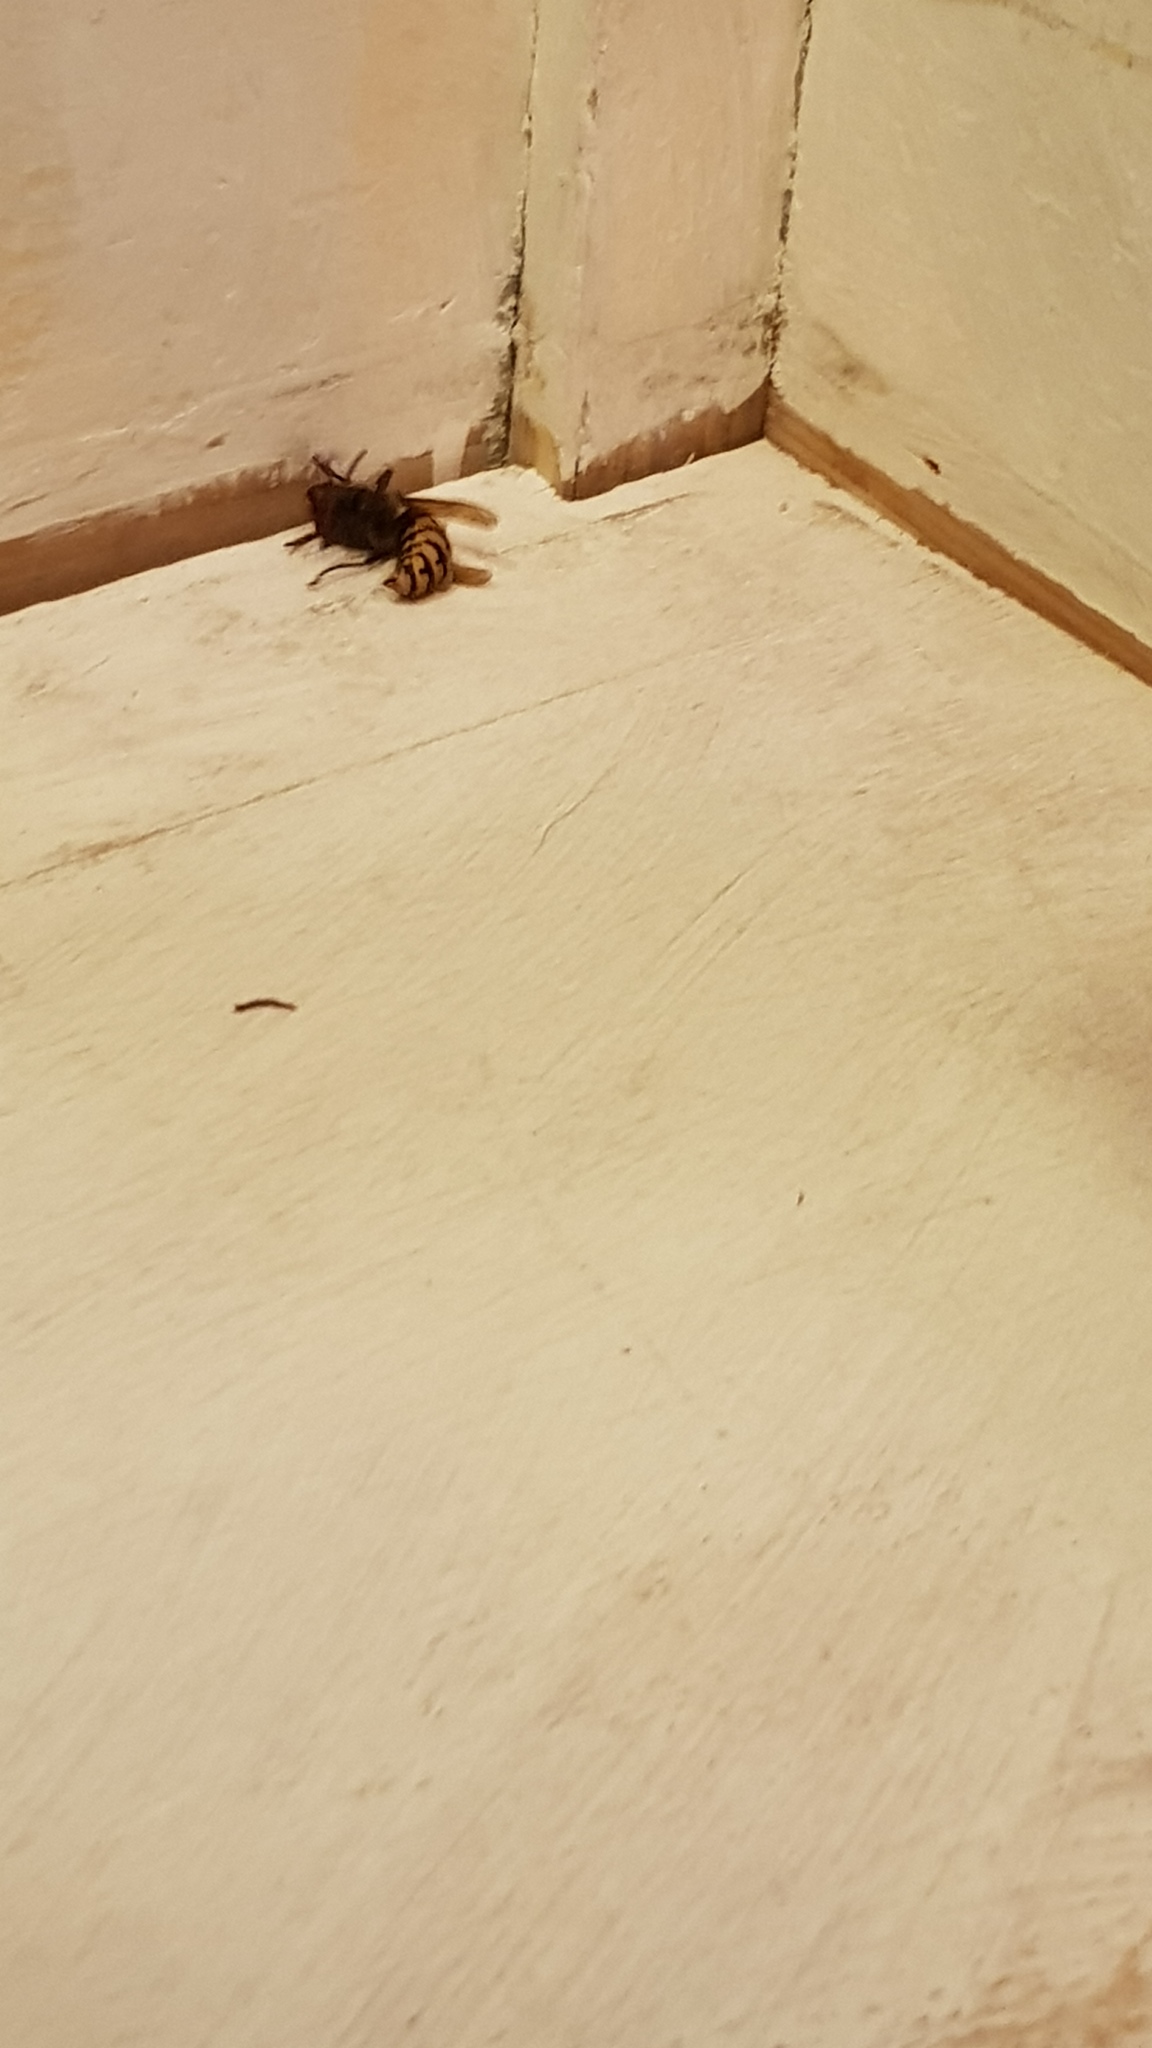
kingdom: Animalia
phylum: Arthropoda
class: Insecta
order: Hymenoptera
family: Vespidae
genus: Vespa
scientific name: Vespa crabro
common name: Hornet
